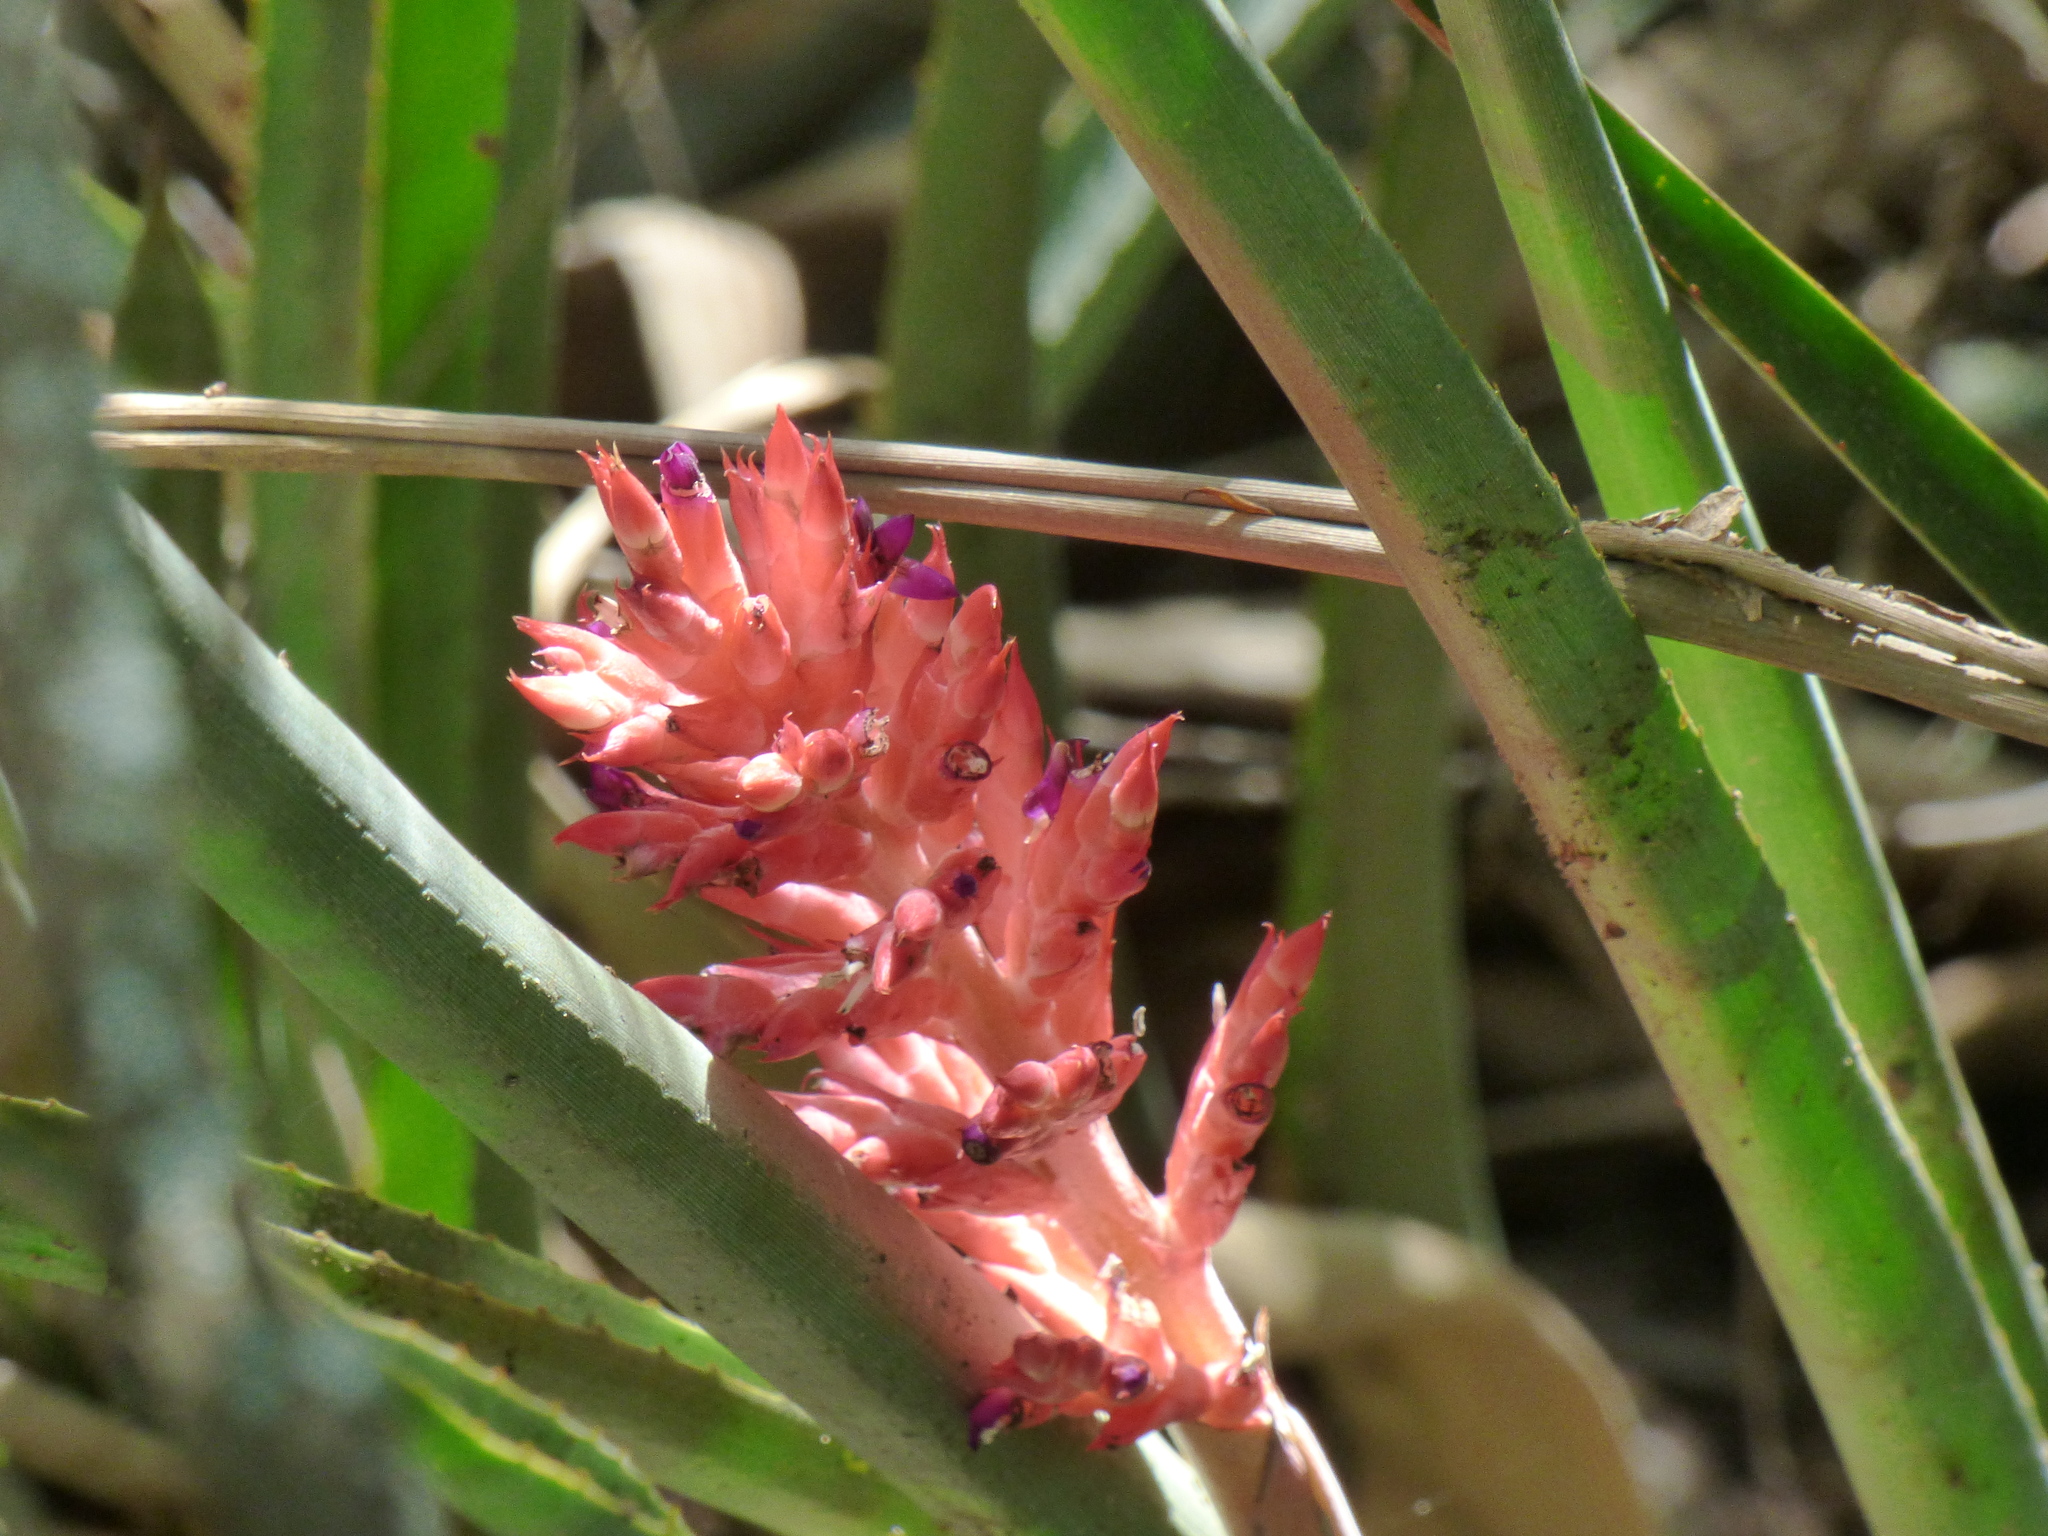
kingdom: Plantae
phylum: Tracheophyta
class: Liliopsida
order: Poales
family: Bromeliaceae
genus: Aechmea
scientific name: Aechmea distichantha
